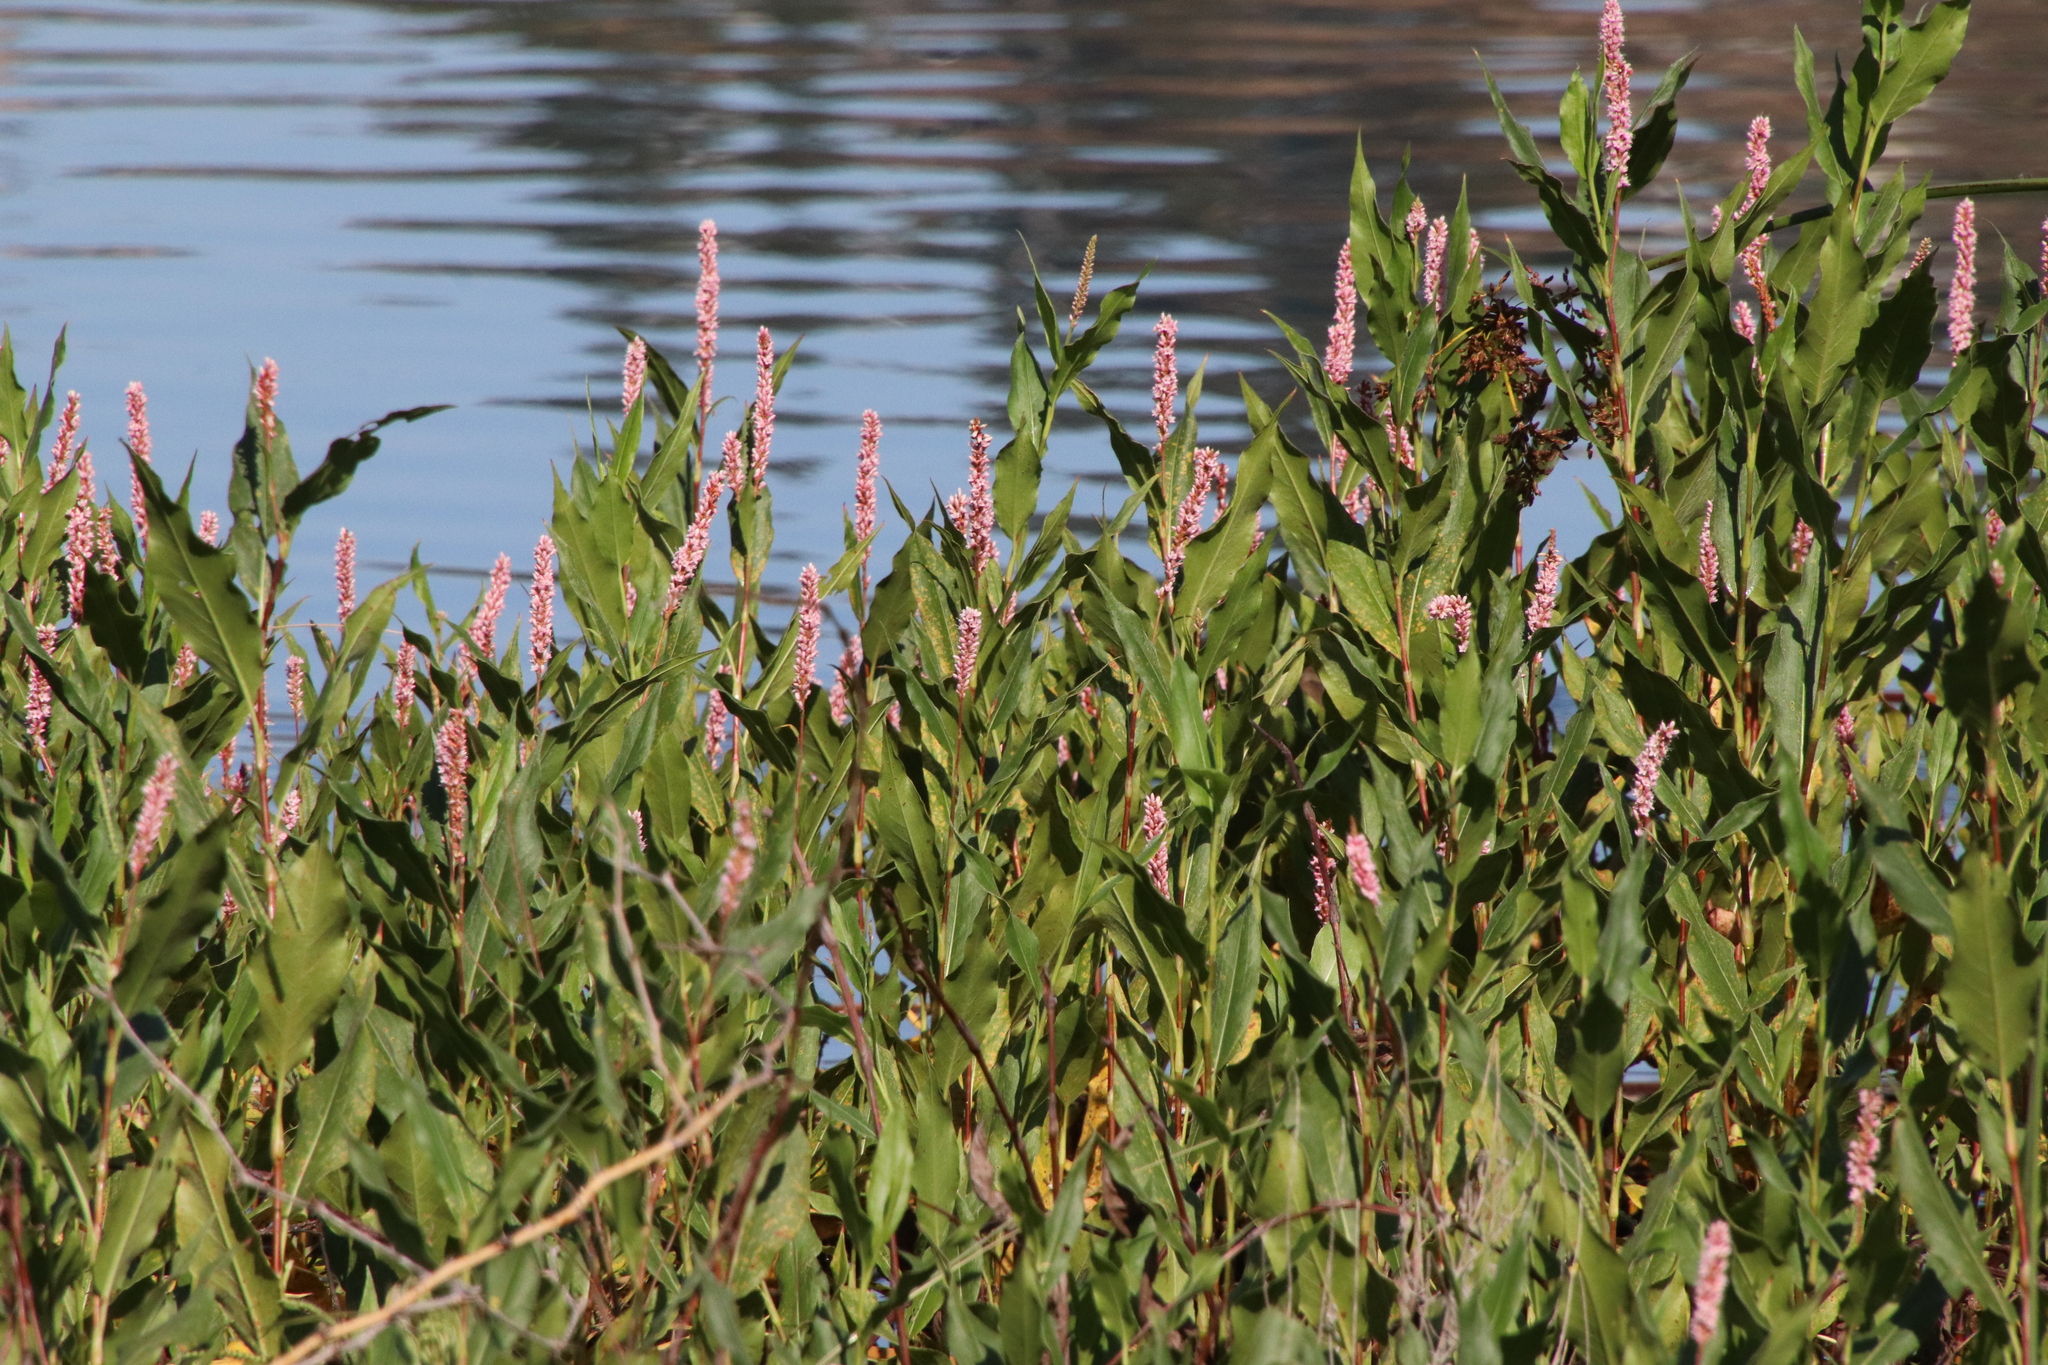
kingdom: Plantae
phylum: Tracheophyta
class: Magnoliopsida
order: Caryophyllales
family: Polygonaceae
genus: Persicaria
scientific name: Persicaria amphibia
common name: Amphibious bistort
